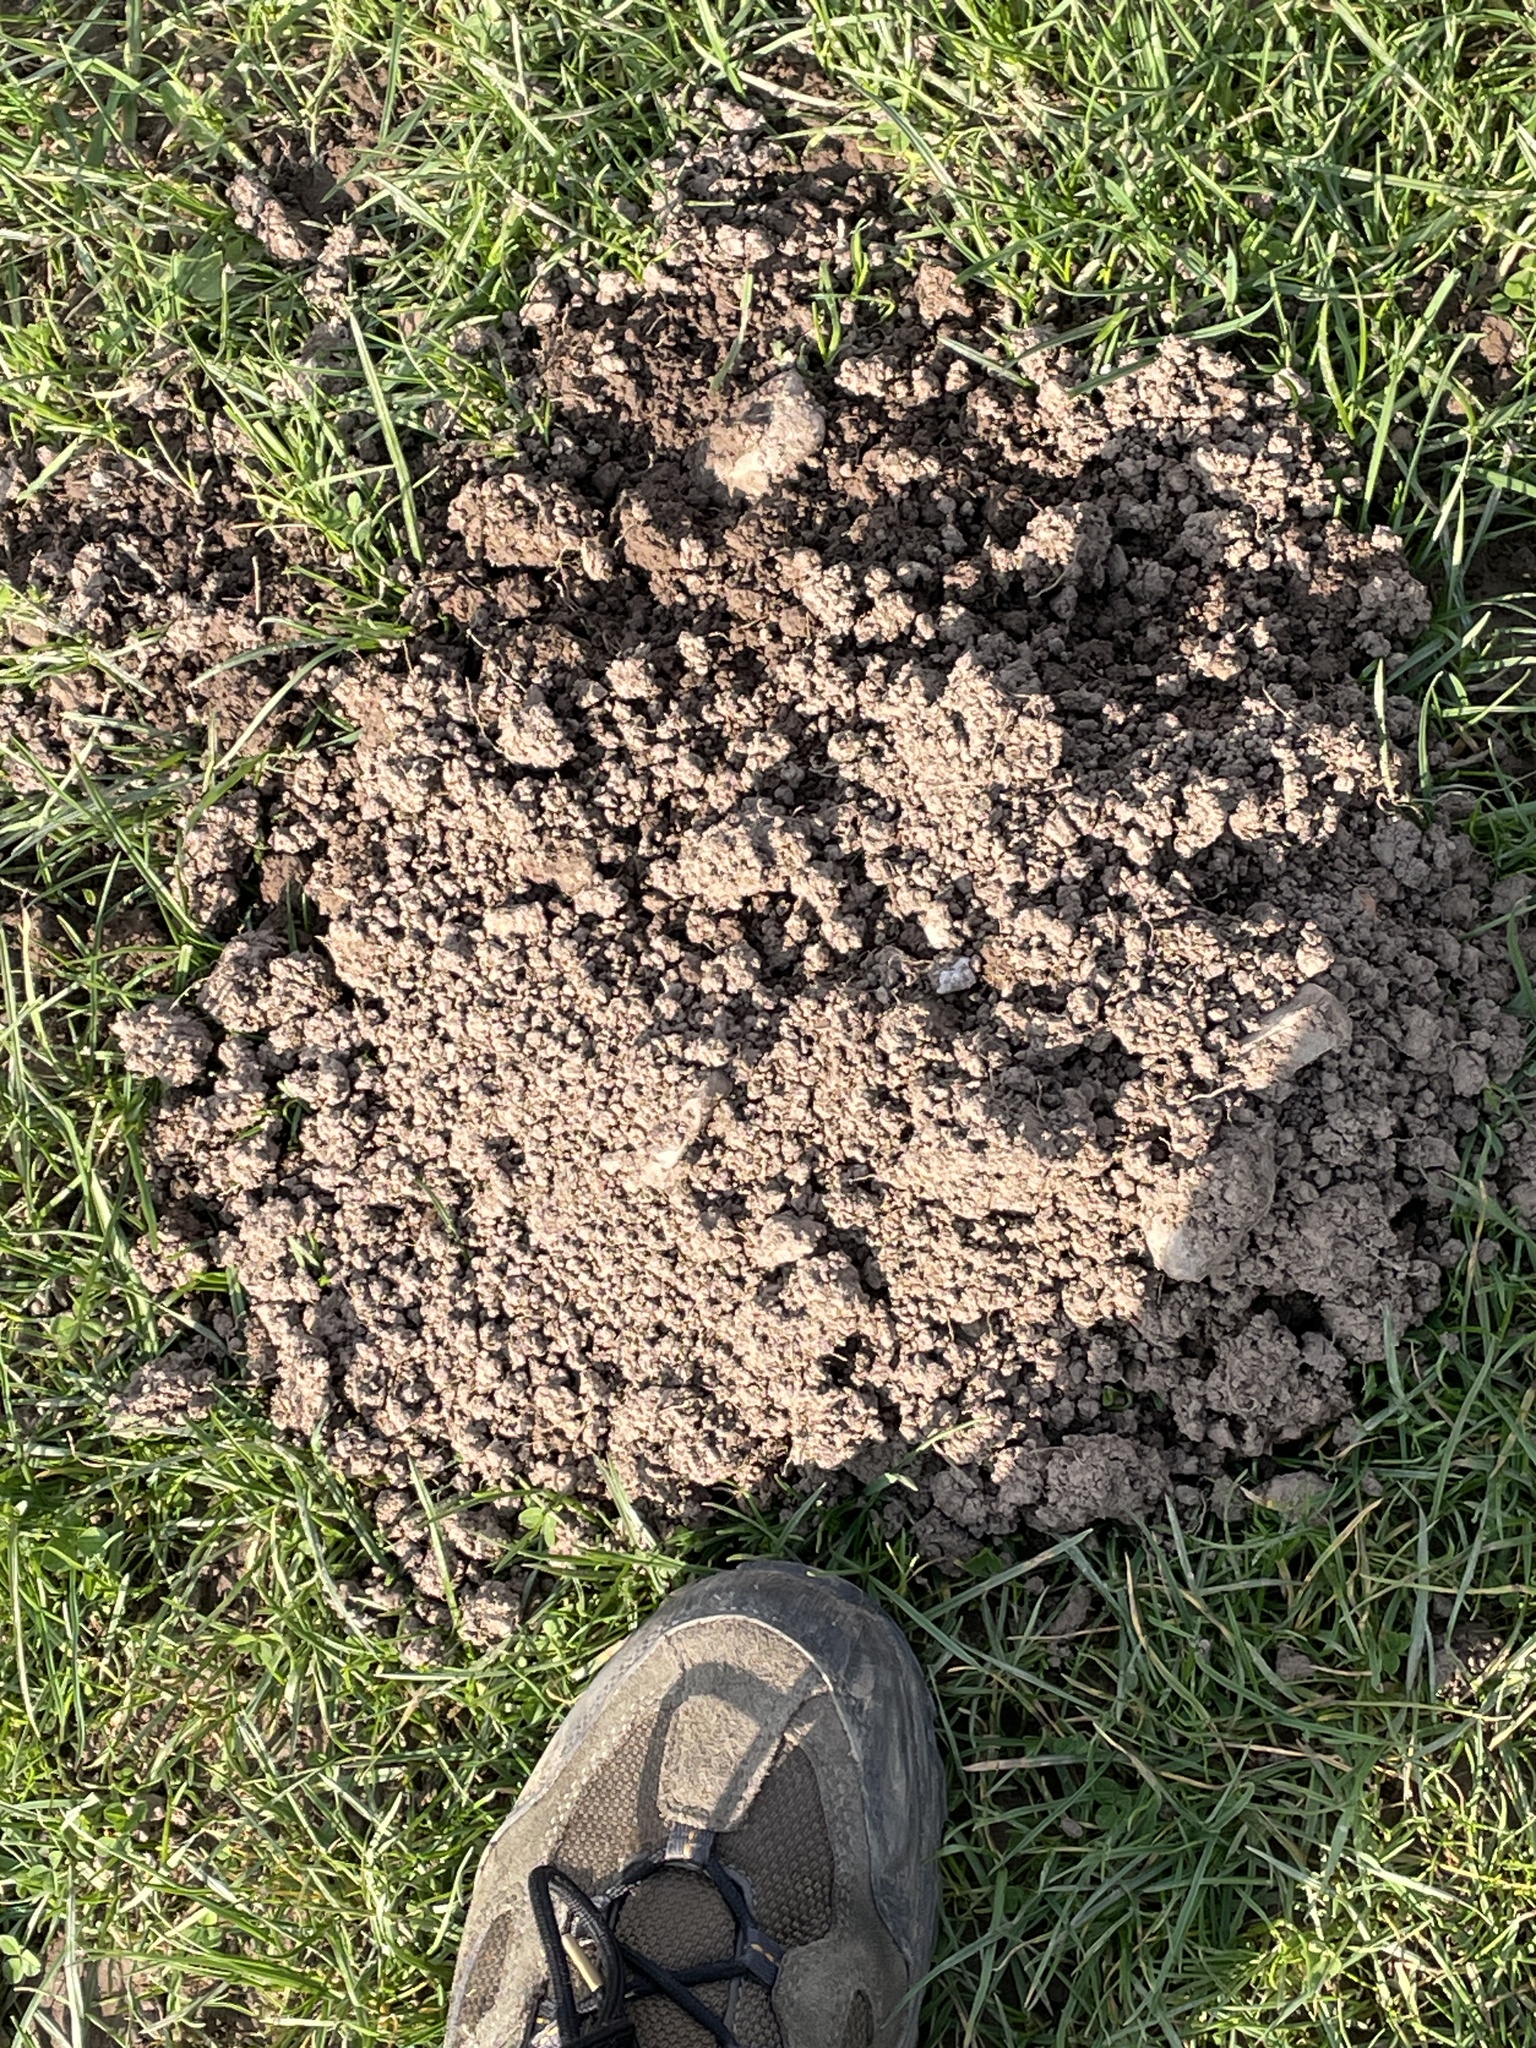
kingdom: Animalia
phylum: Chordata
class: Mammalia
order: Soricomorpha
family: Talpidae
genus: Talpa
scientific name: Talpa europaea
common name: European mole
